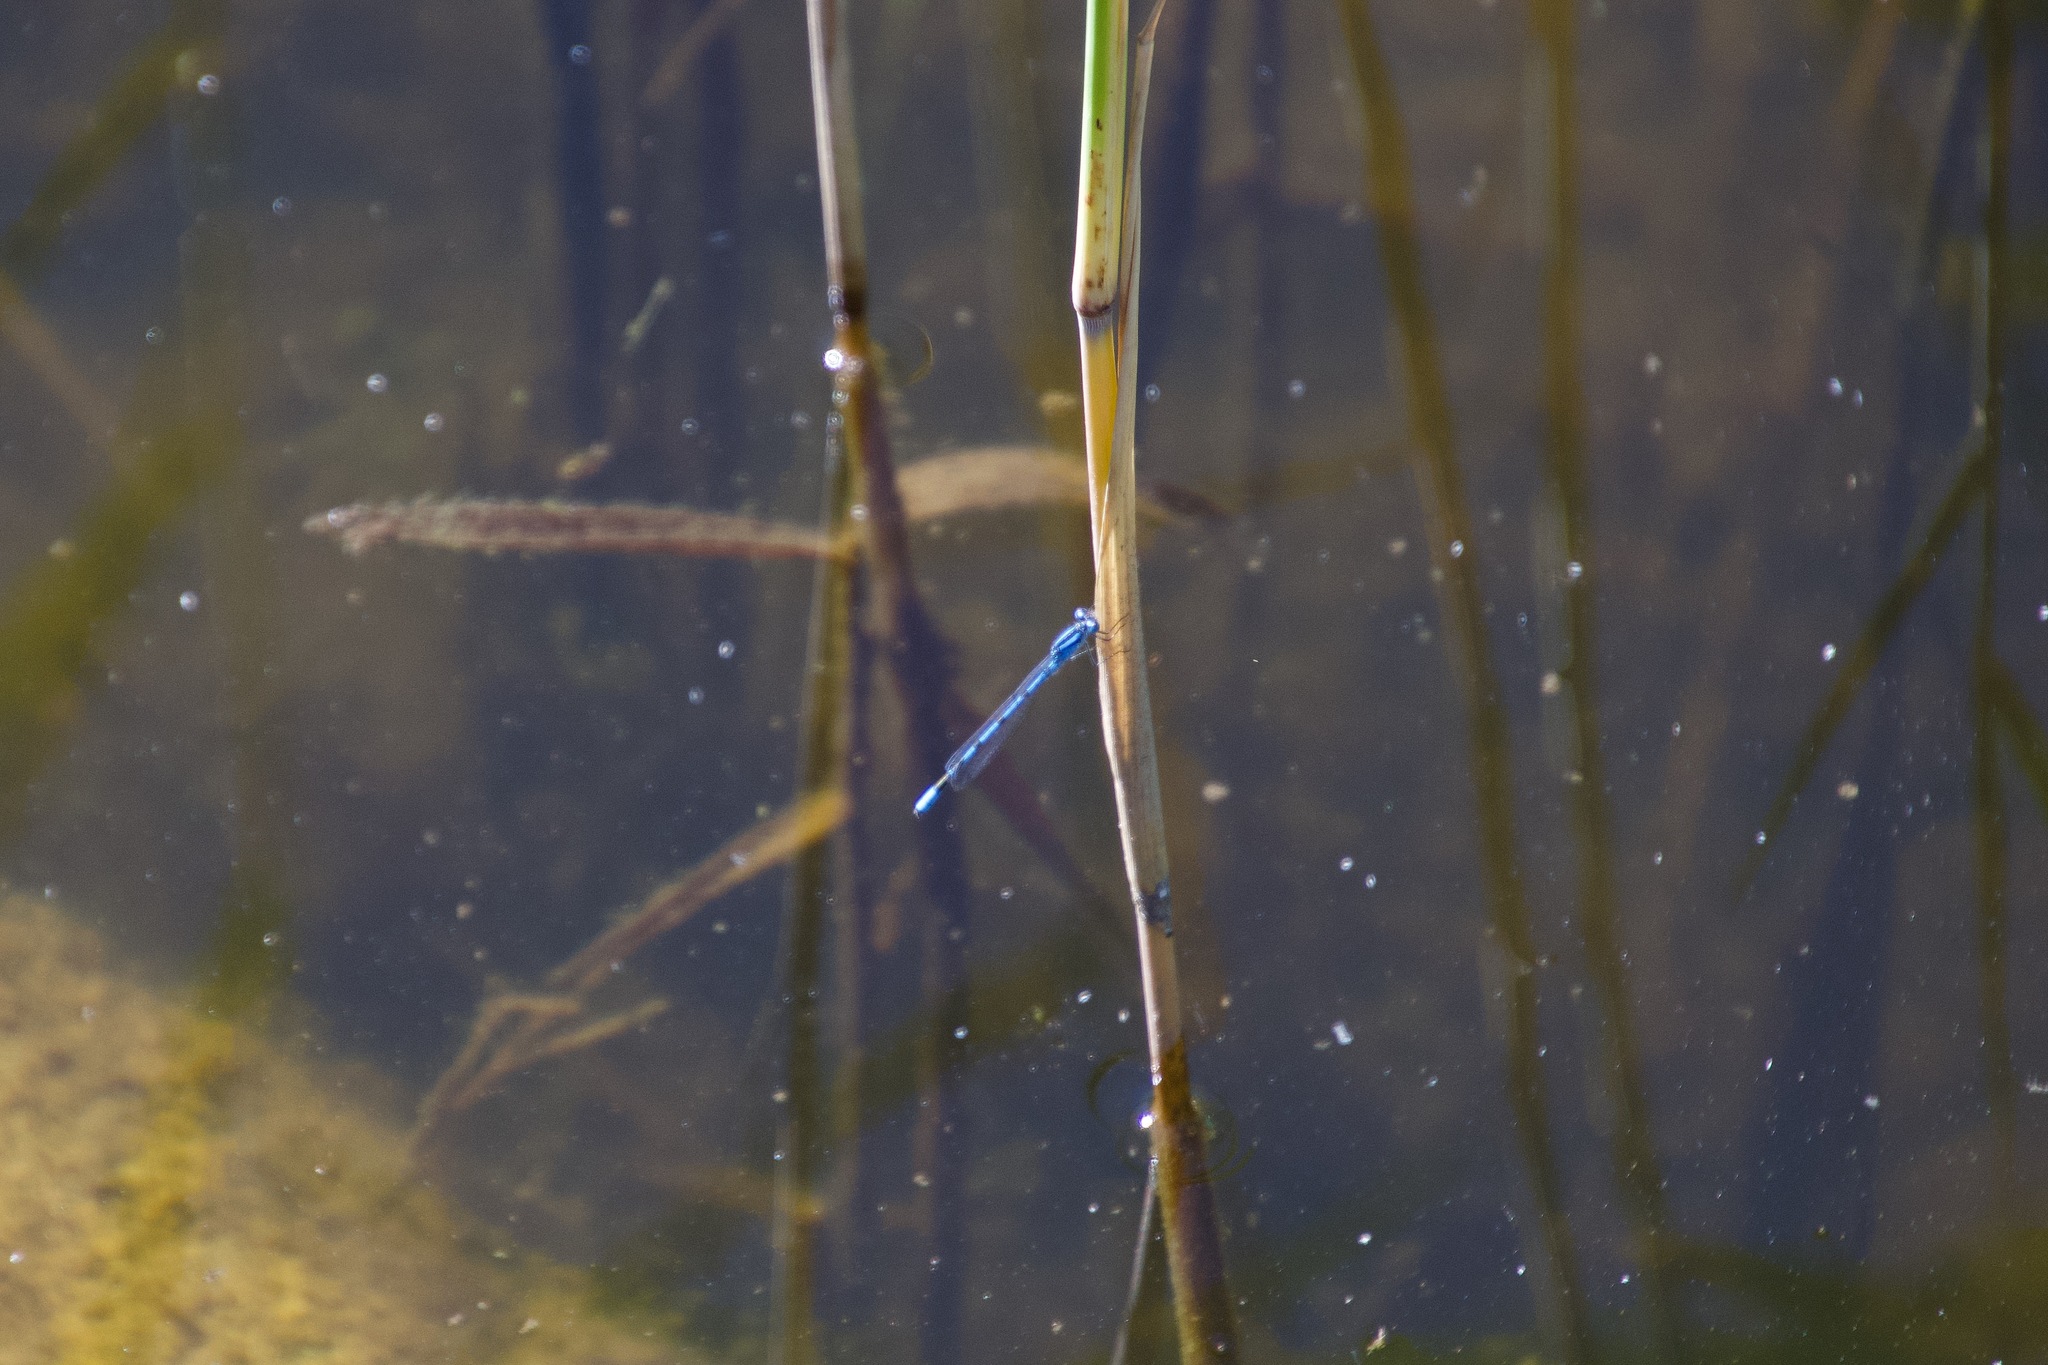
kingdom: Animalia
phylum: Arthropoda
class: Insecta
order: Odonata
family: Coenagrionidae
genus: Enallagma
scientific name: Enallagma cyathigerum
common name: Common blue damselfly
